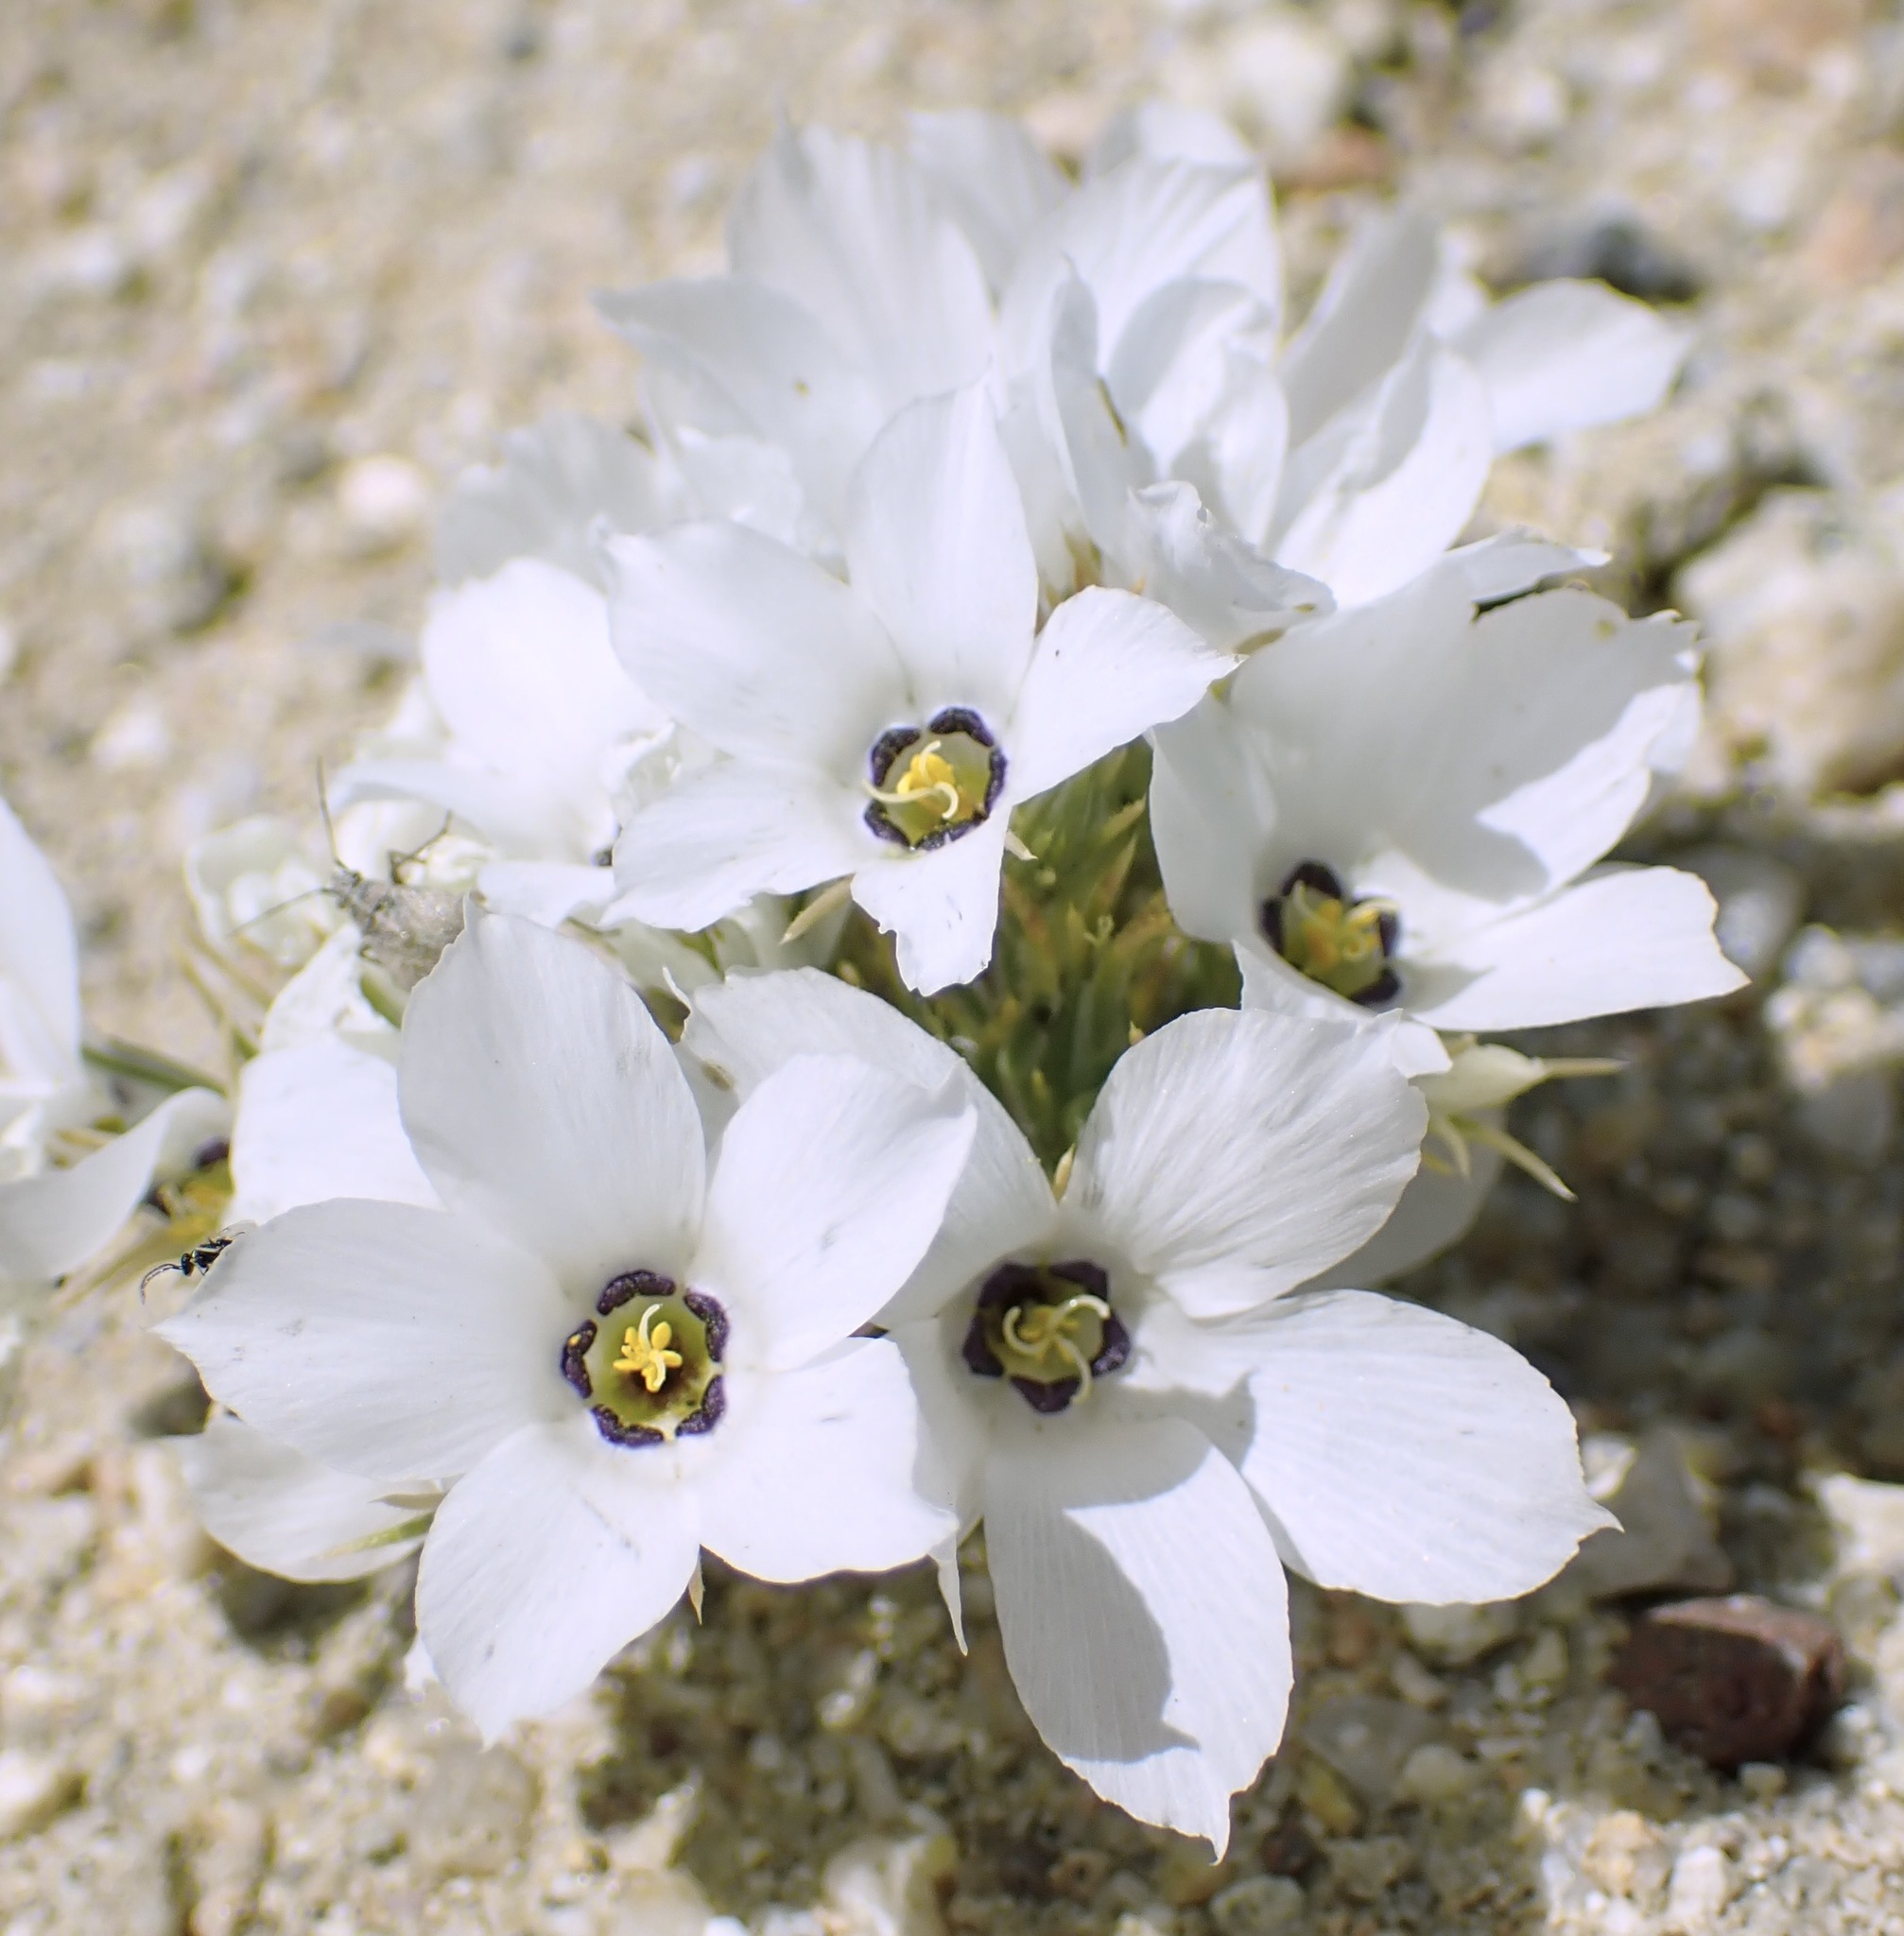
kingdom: Plantae
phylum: Tracheophyta
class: Magnoliopsida
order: Ericales
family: Polemoniaceae
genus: Linanthus
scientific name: Linanthus parryae
